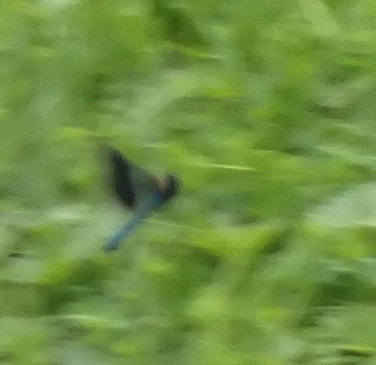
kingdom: Animalia
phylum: Arthropoda
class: Insecta
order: Odonata
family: Calopterygidae
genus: Calopteryx
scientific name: Calopteryx splendens
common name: Banded demoiselle
